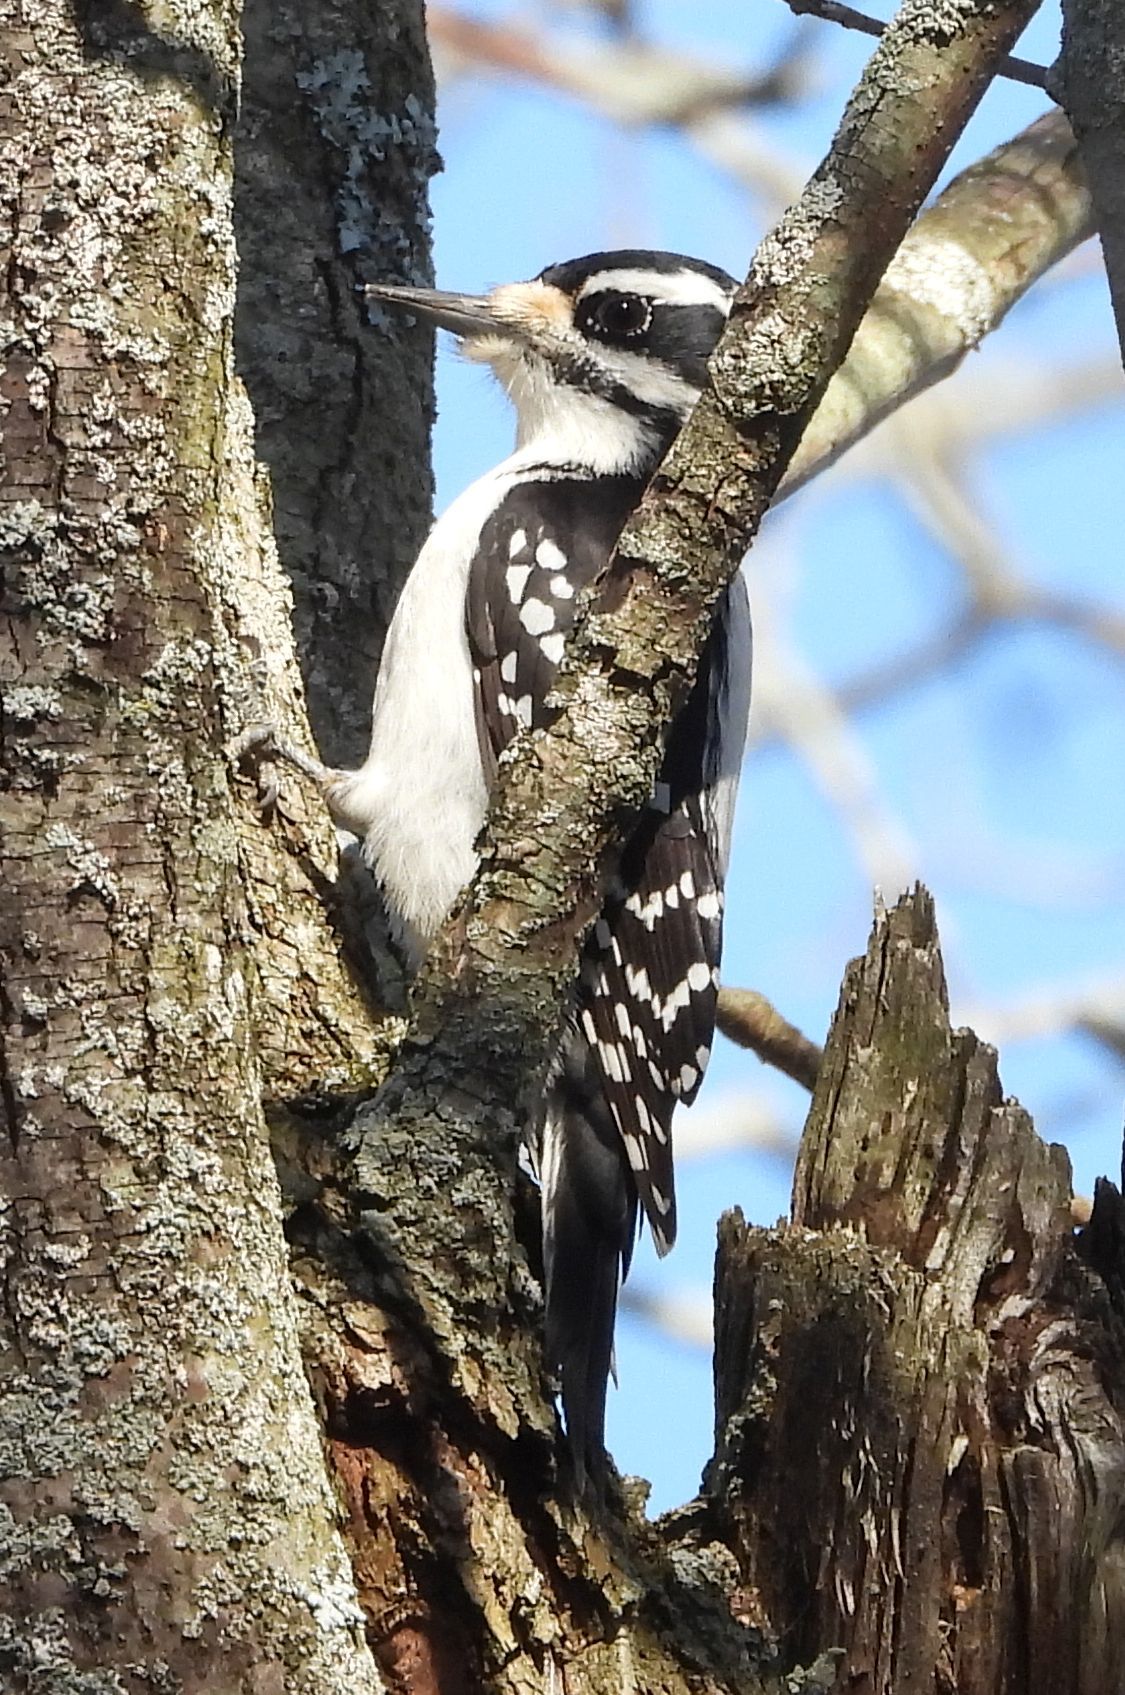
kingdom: Animalia
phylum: Chordata
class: Aves
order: Piciformes
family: Picidae
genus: Leuconotopicus
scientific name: Leuconotopicus villosus
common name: Hairy woodpecker
